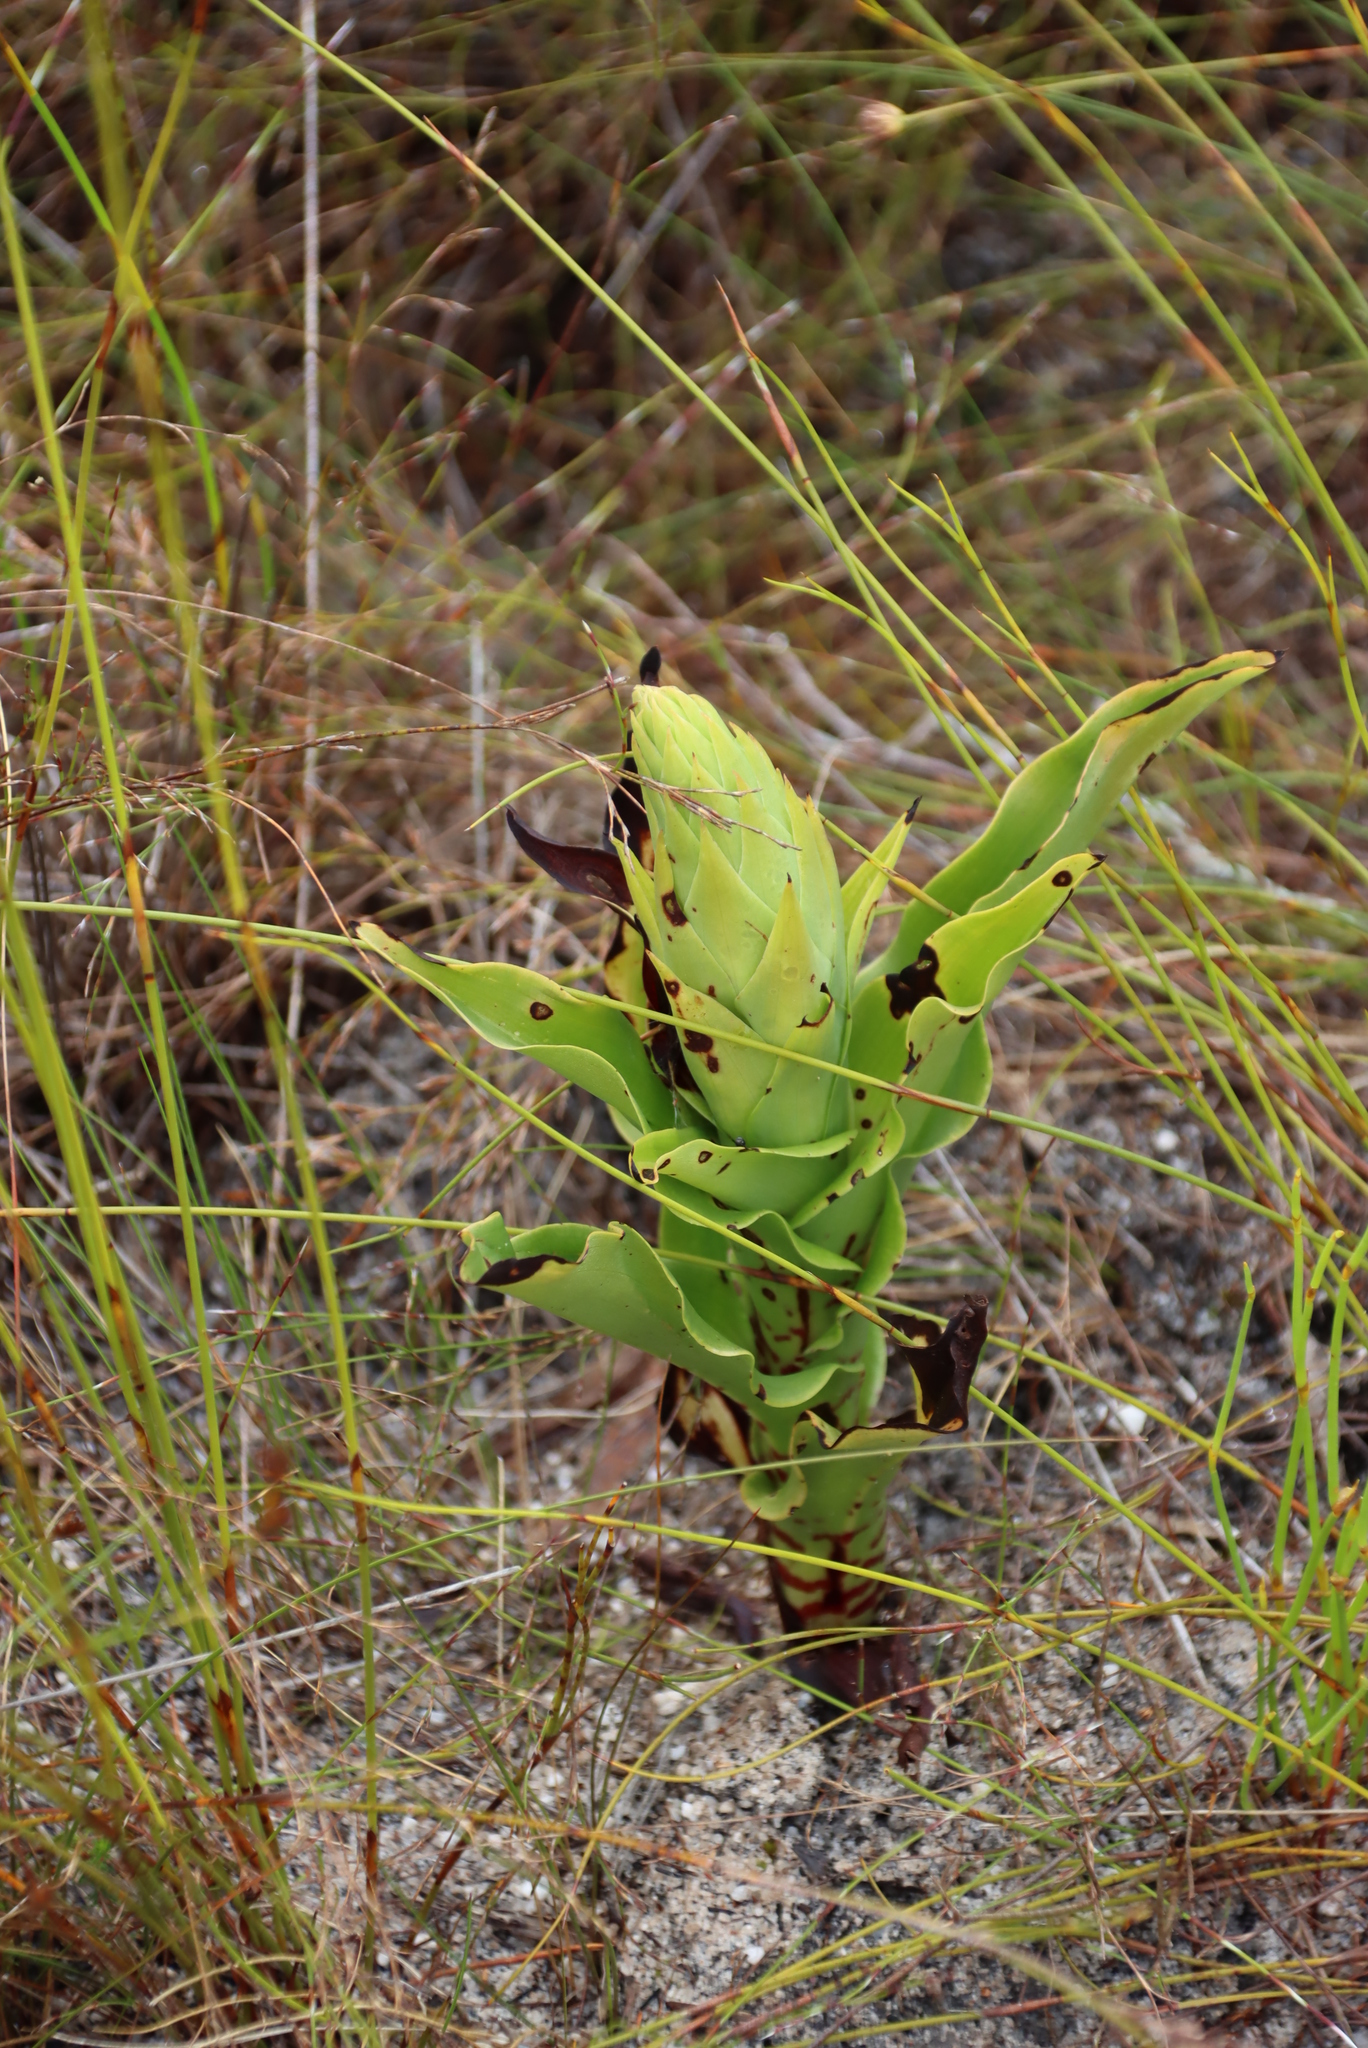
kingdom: Plantae
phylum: Tracheophyta
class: Liliopsida
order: Asparagales
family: Orchidaceae
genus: Disa
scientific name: Disa cornuta
